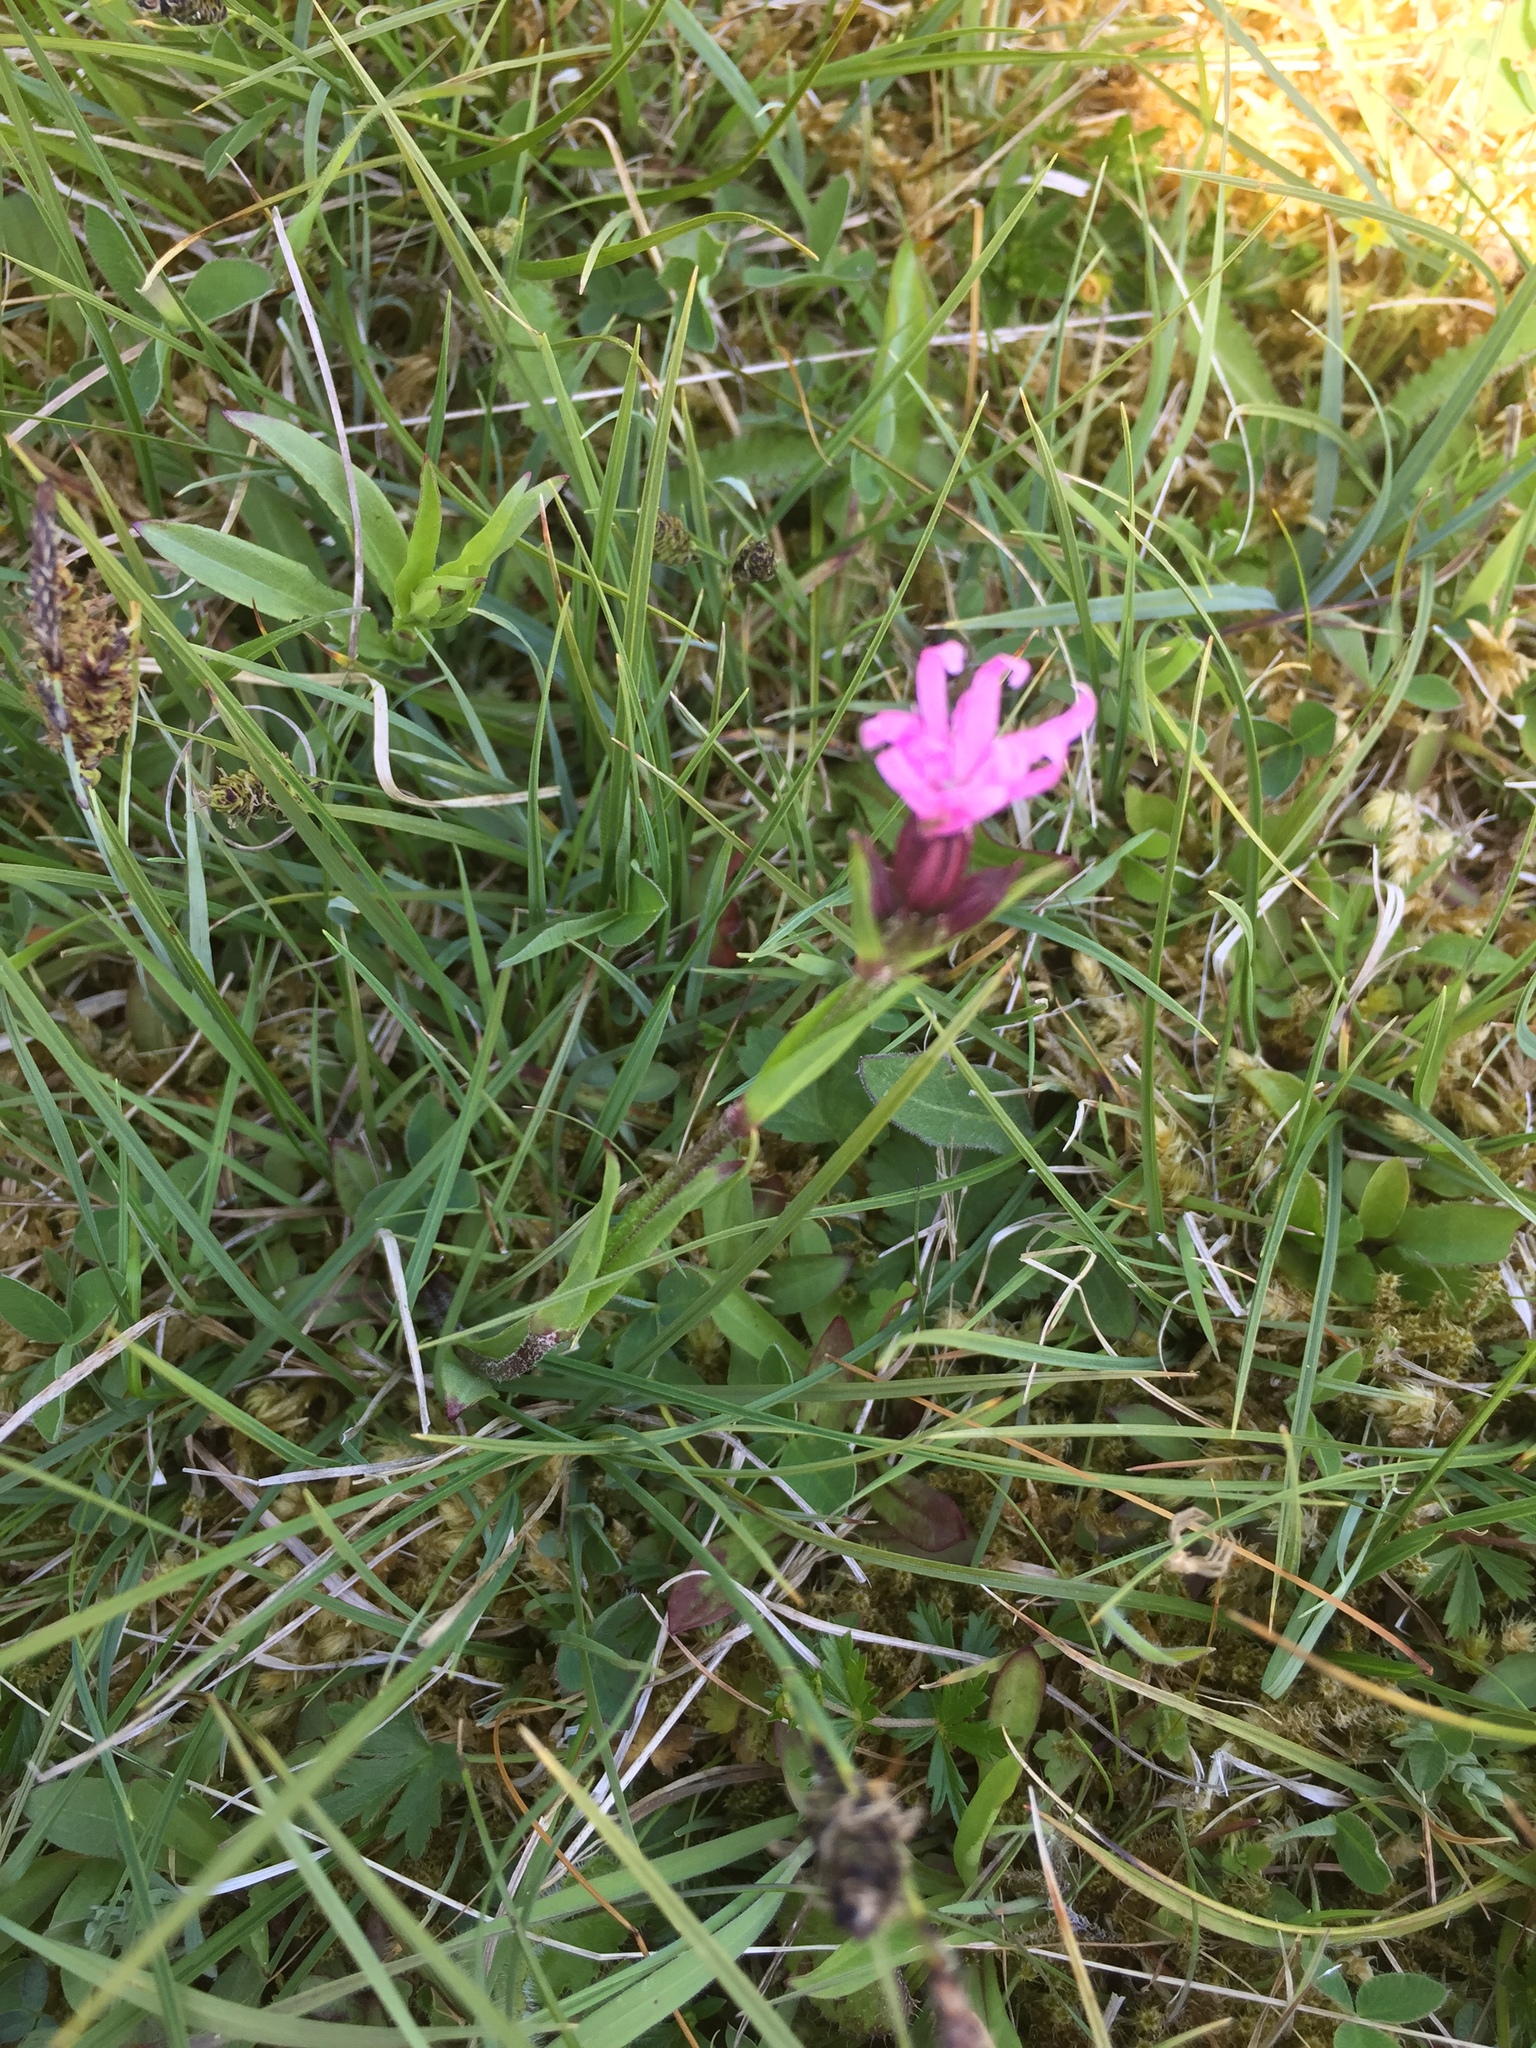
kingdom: Plantae
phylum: Tracheophyta
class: Magnoliopsida
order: Caryophyllales
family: Caryophyllaceae
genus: Silene
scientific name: Silene flos-cuculi
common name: Ragged-robin
